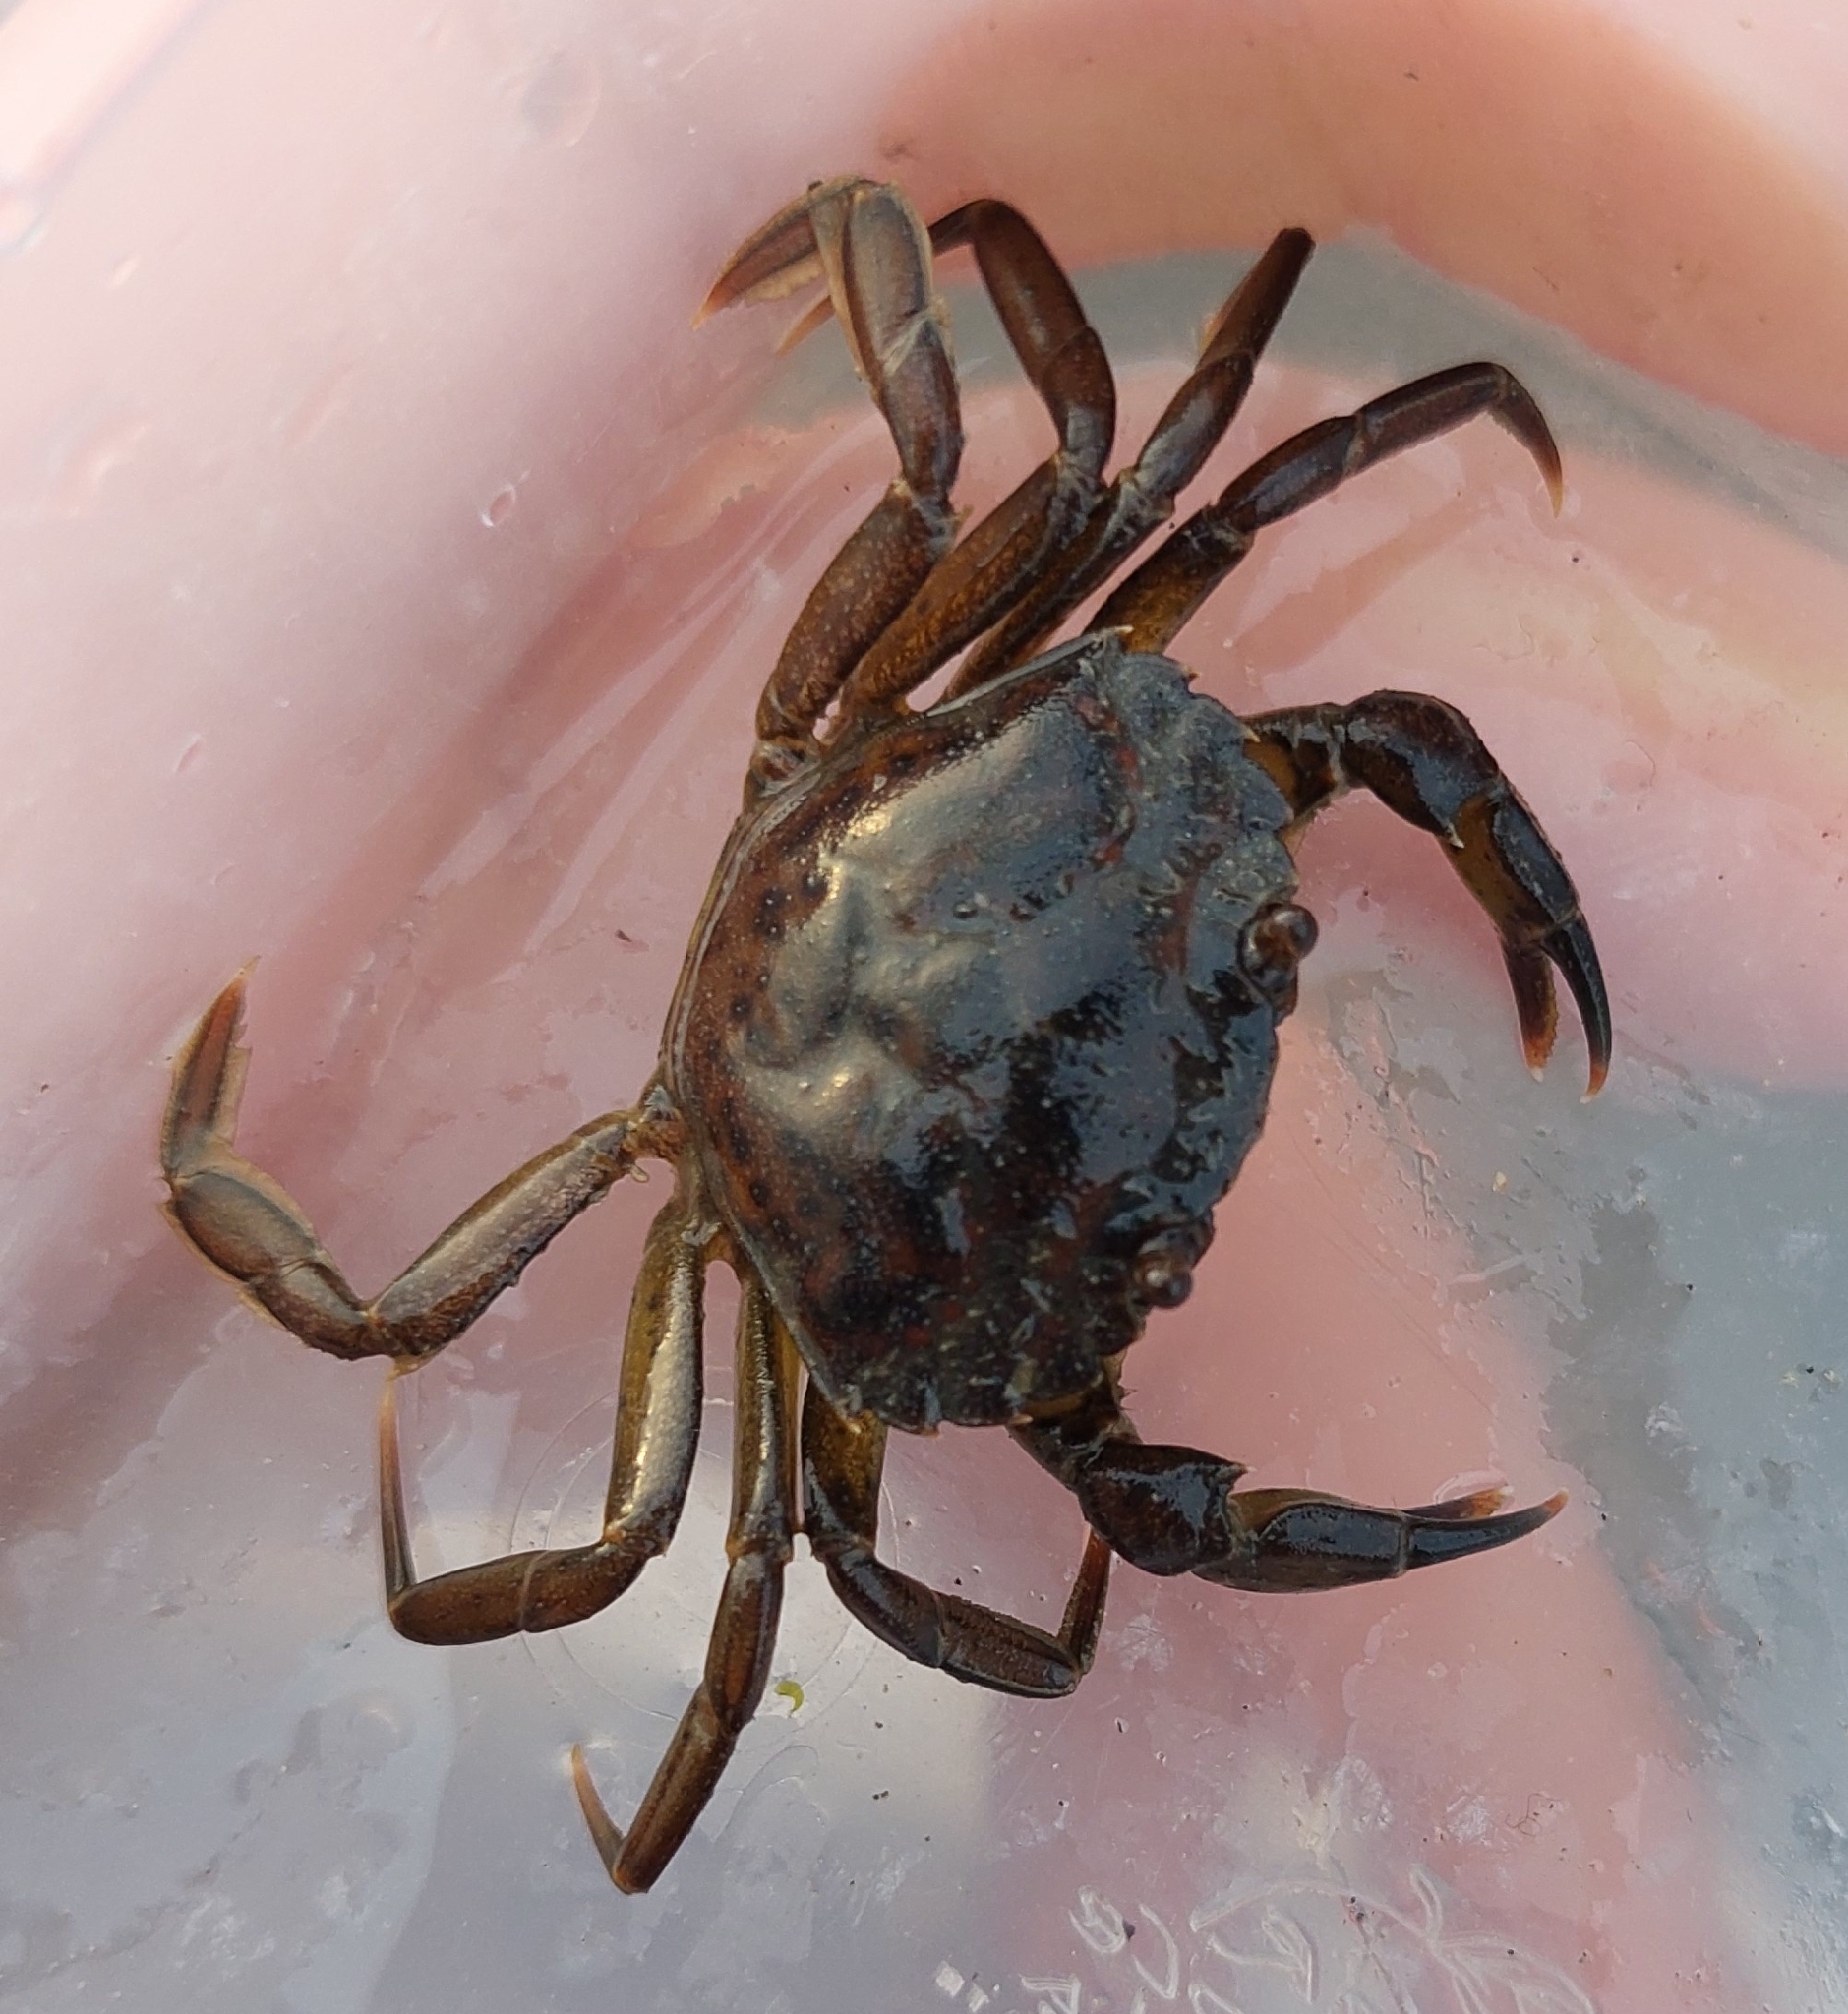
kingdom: Animalia
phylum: Arthropoda
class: Malacostraca
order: Decapoda
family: Carcinidae
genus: Carcinus
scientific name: Carcinus maenas
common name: European green crab
